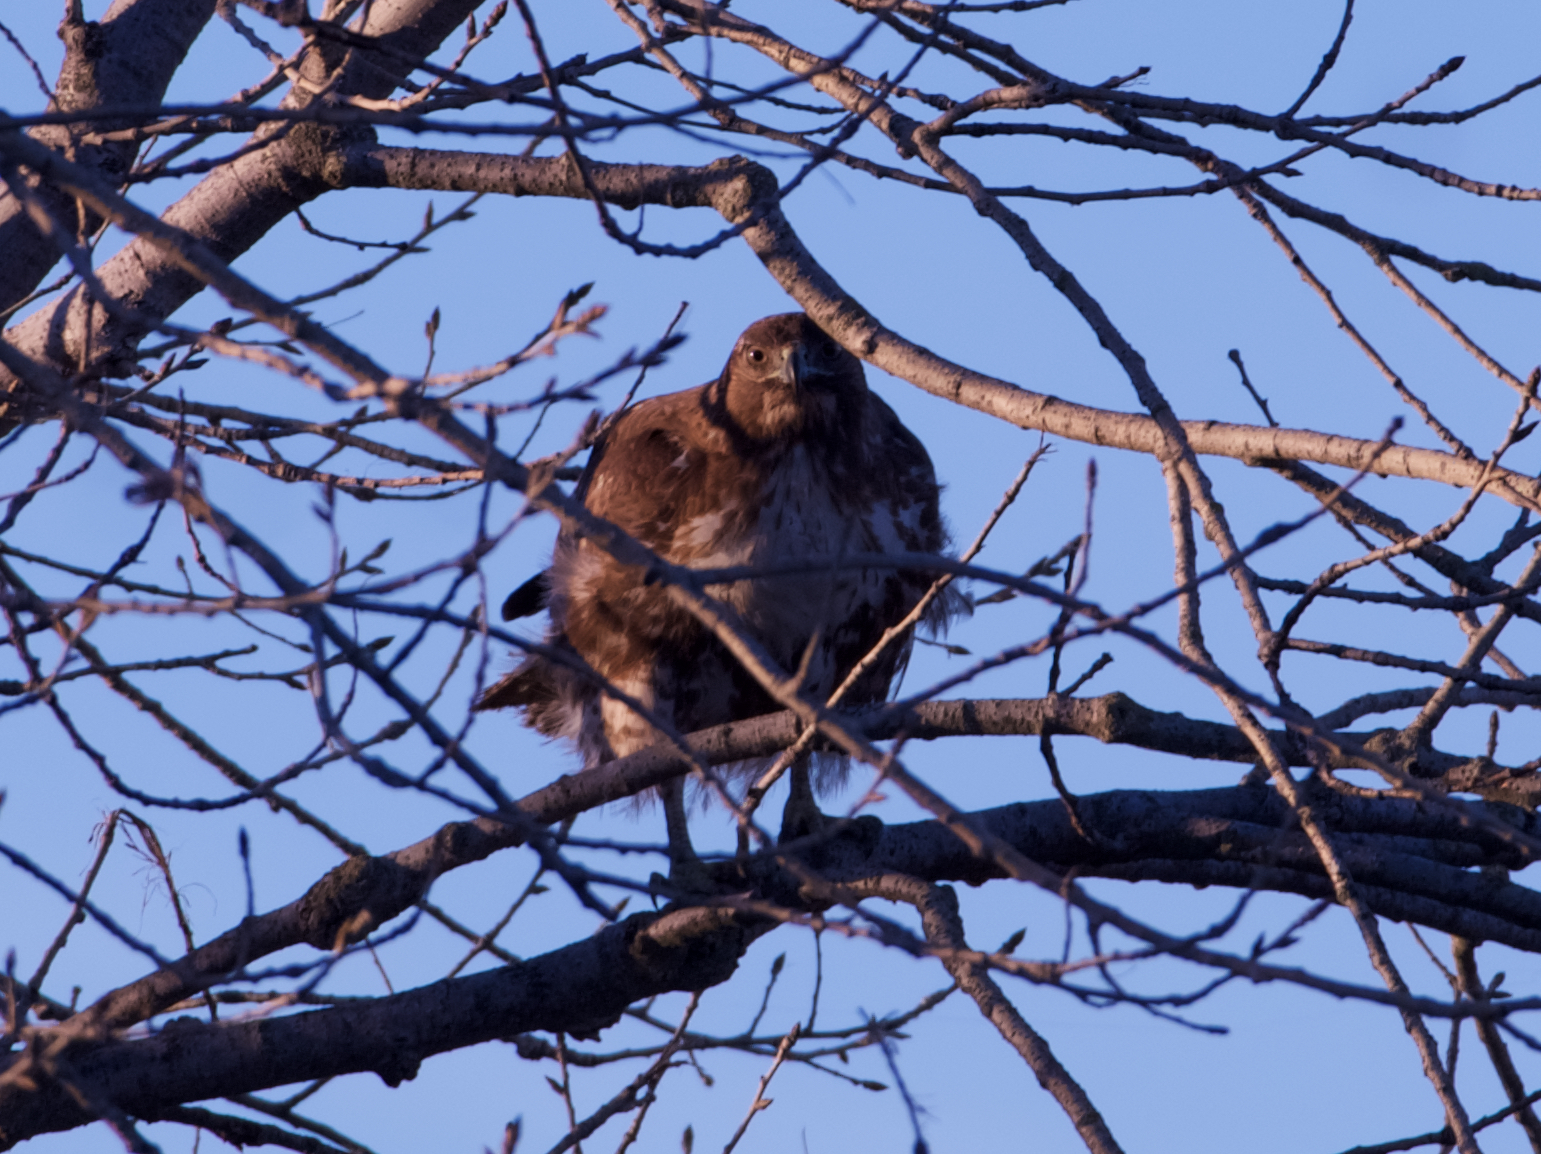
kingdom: Animalia
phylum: Chordata
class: Aves
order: Accipitriformes
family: Accipitridae
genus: Buteo
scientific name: Buteo jamaicensis
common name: Red-tailed hawk
